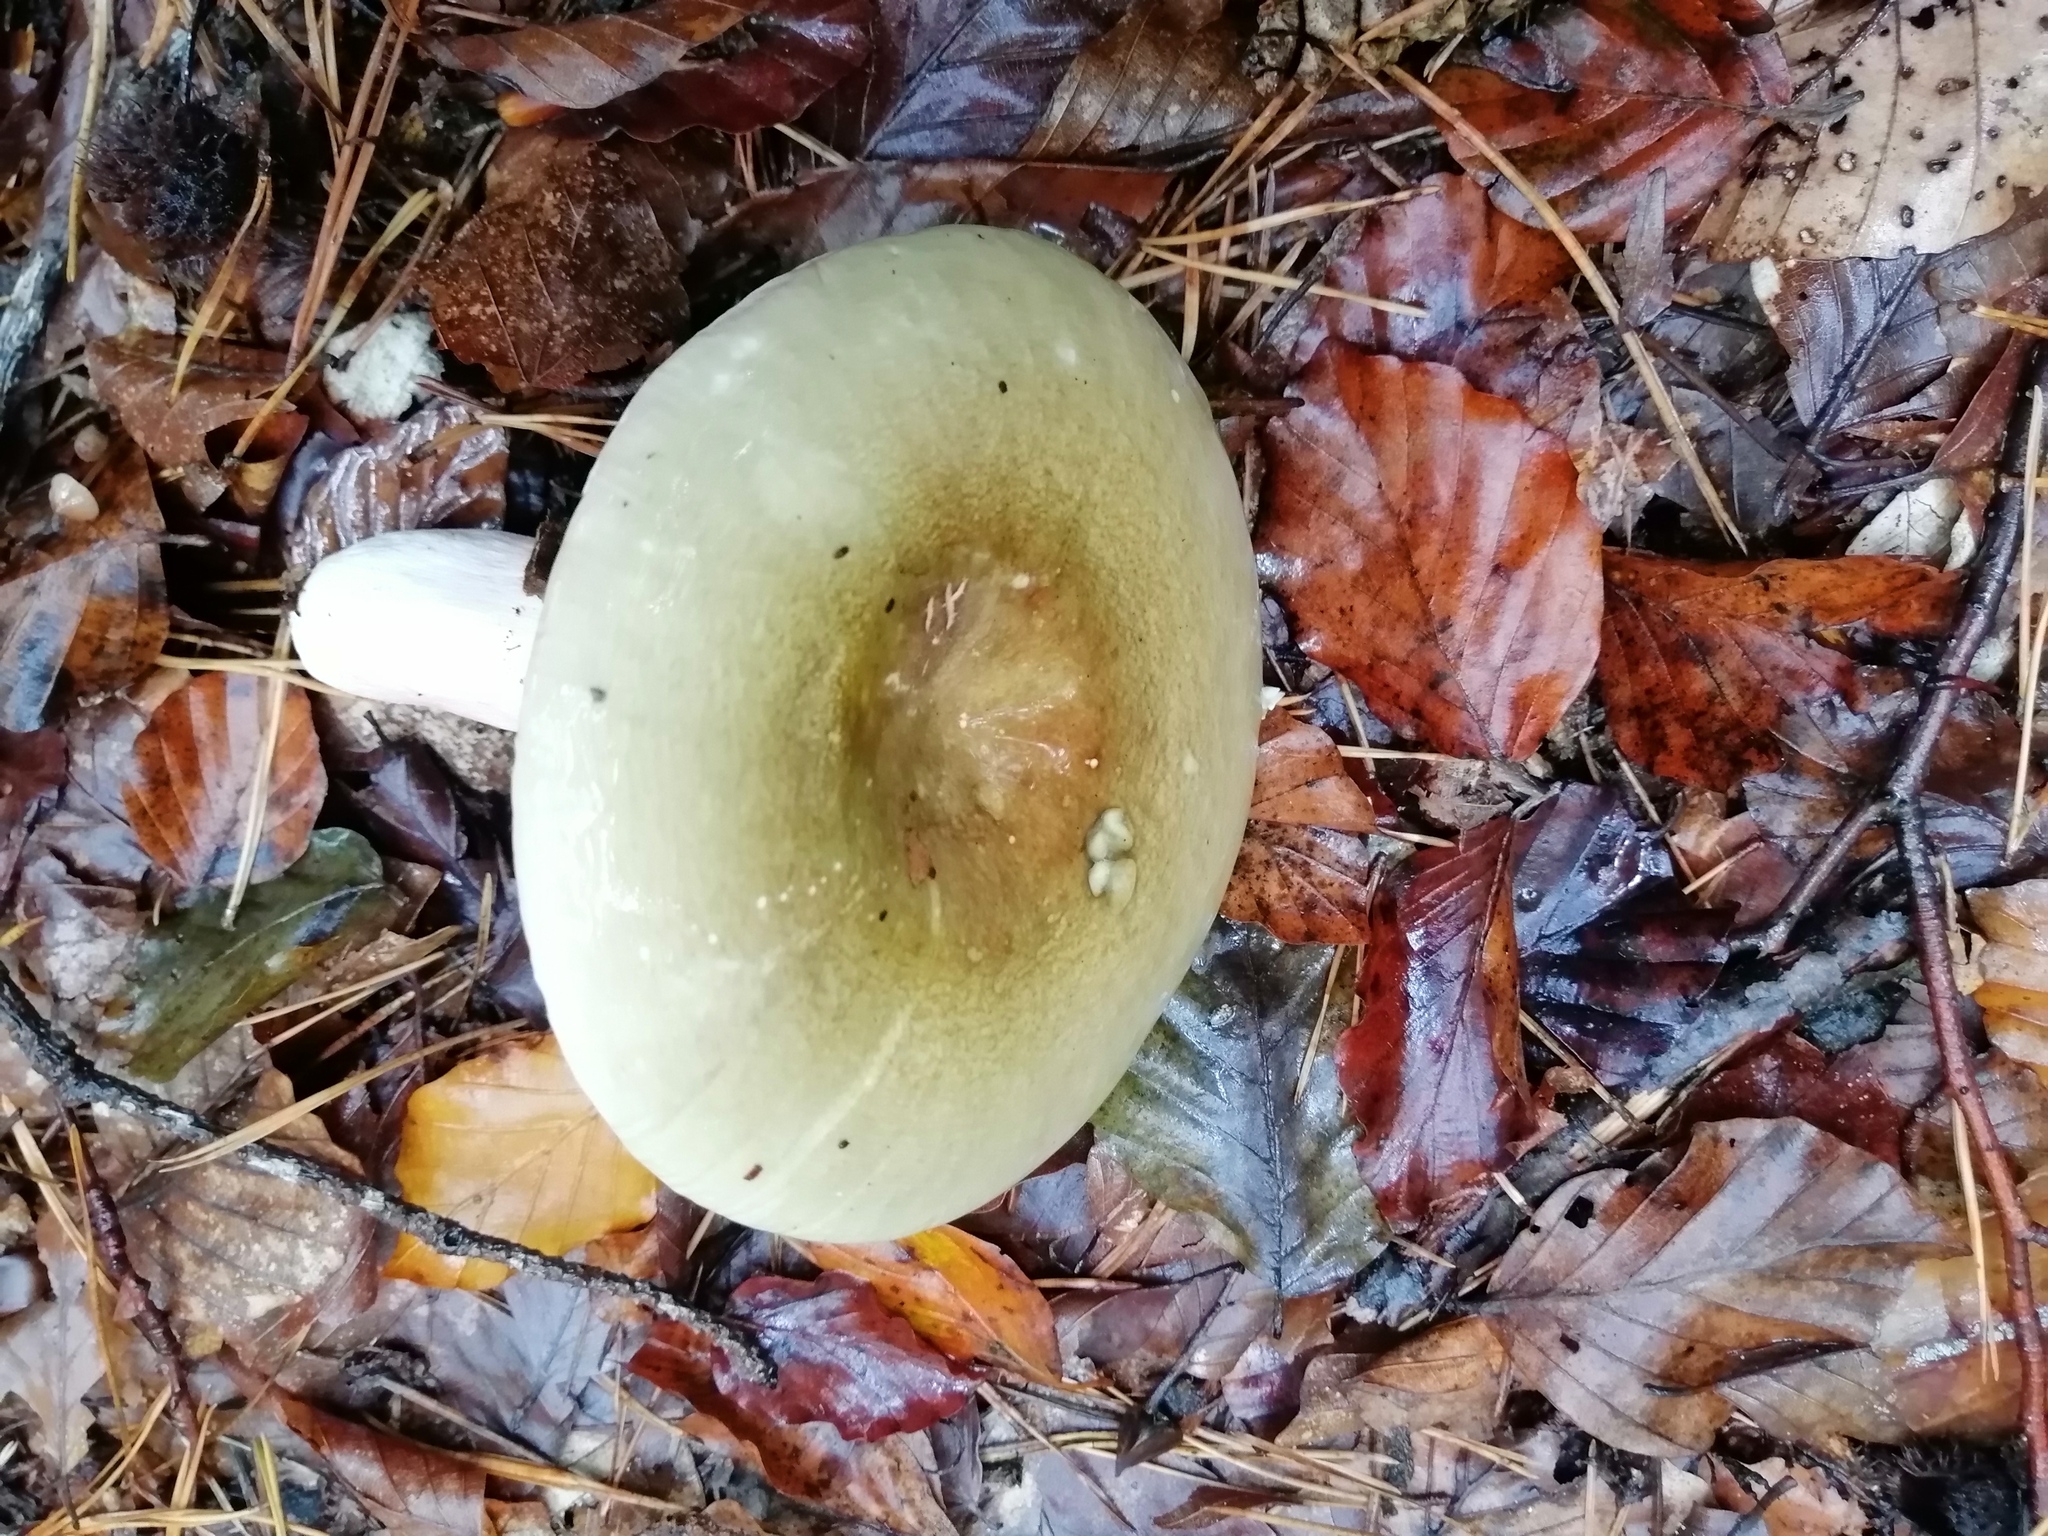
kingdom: Fungi
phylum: Basidiomycota
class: Agaricomycetes
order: Russulales
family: Russulaceae
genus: Russula
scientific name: Russula olivacea
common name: Olive brittlegill
